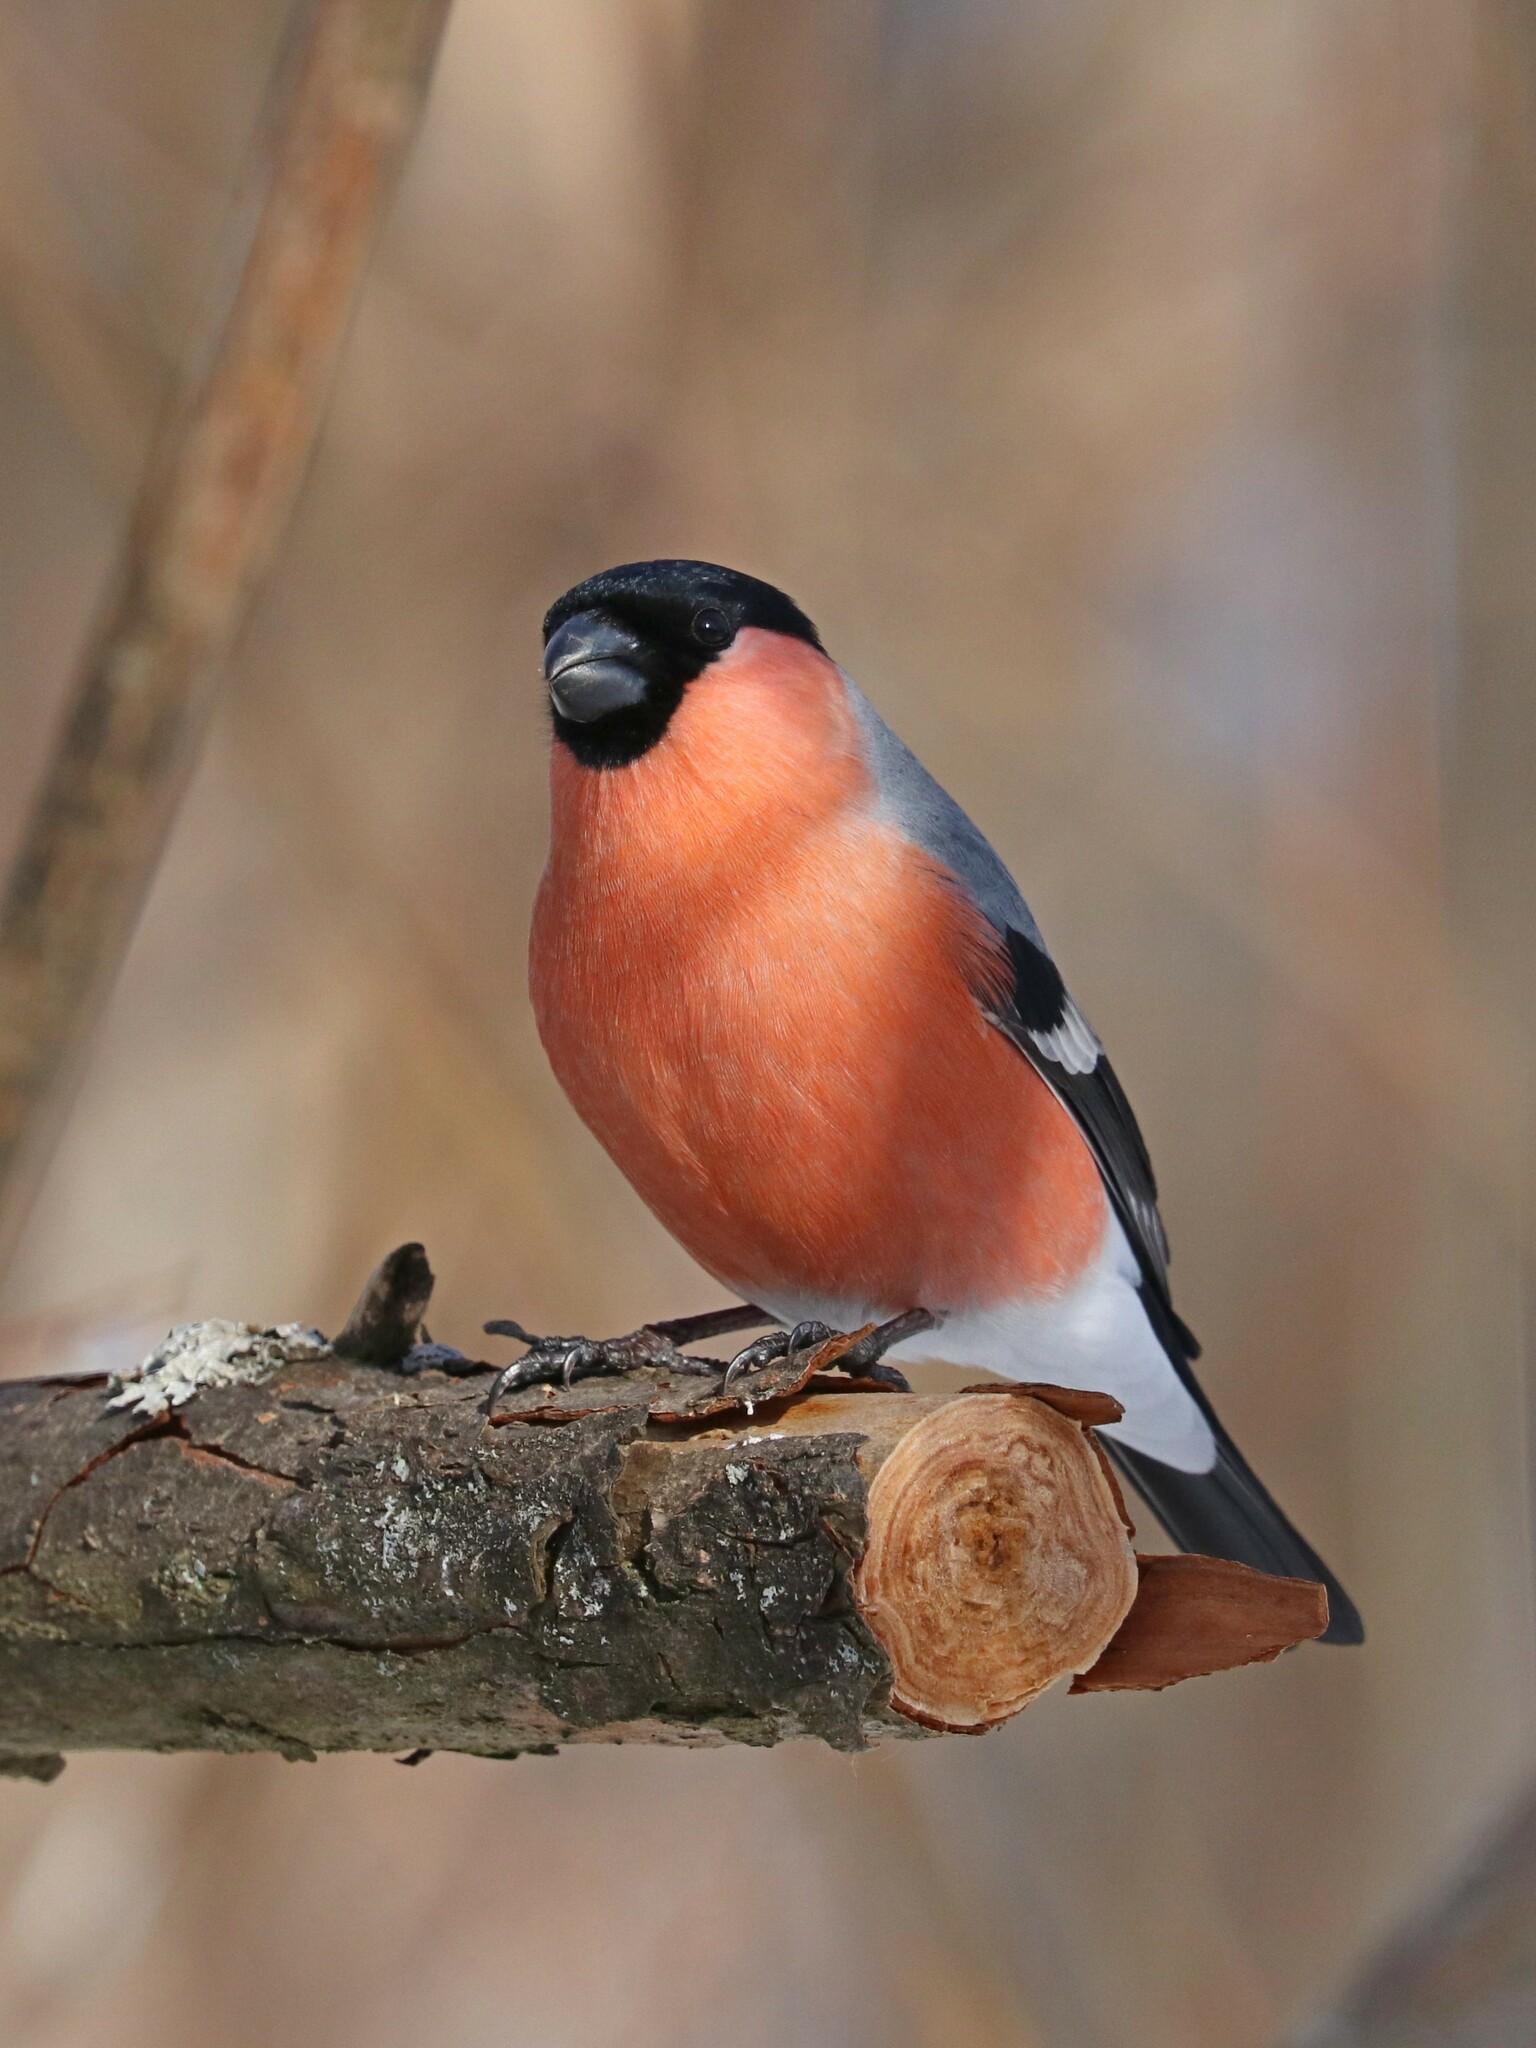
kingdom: Animalia
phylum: Chordata
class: Aves
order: Passeriformes
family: Fringillidae
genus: Pyrrhula
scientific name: Pyrrhula pyrrhula
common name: Eurasian bullfinch
